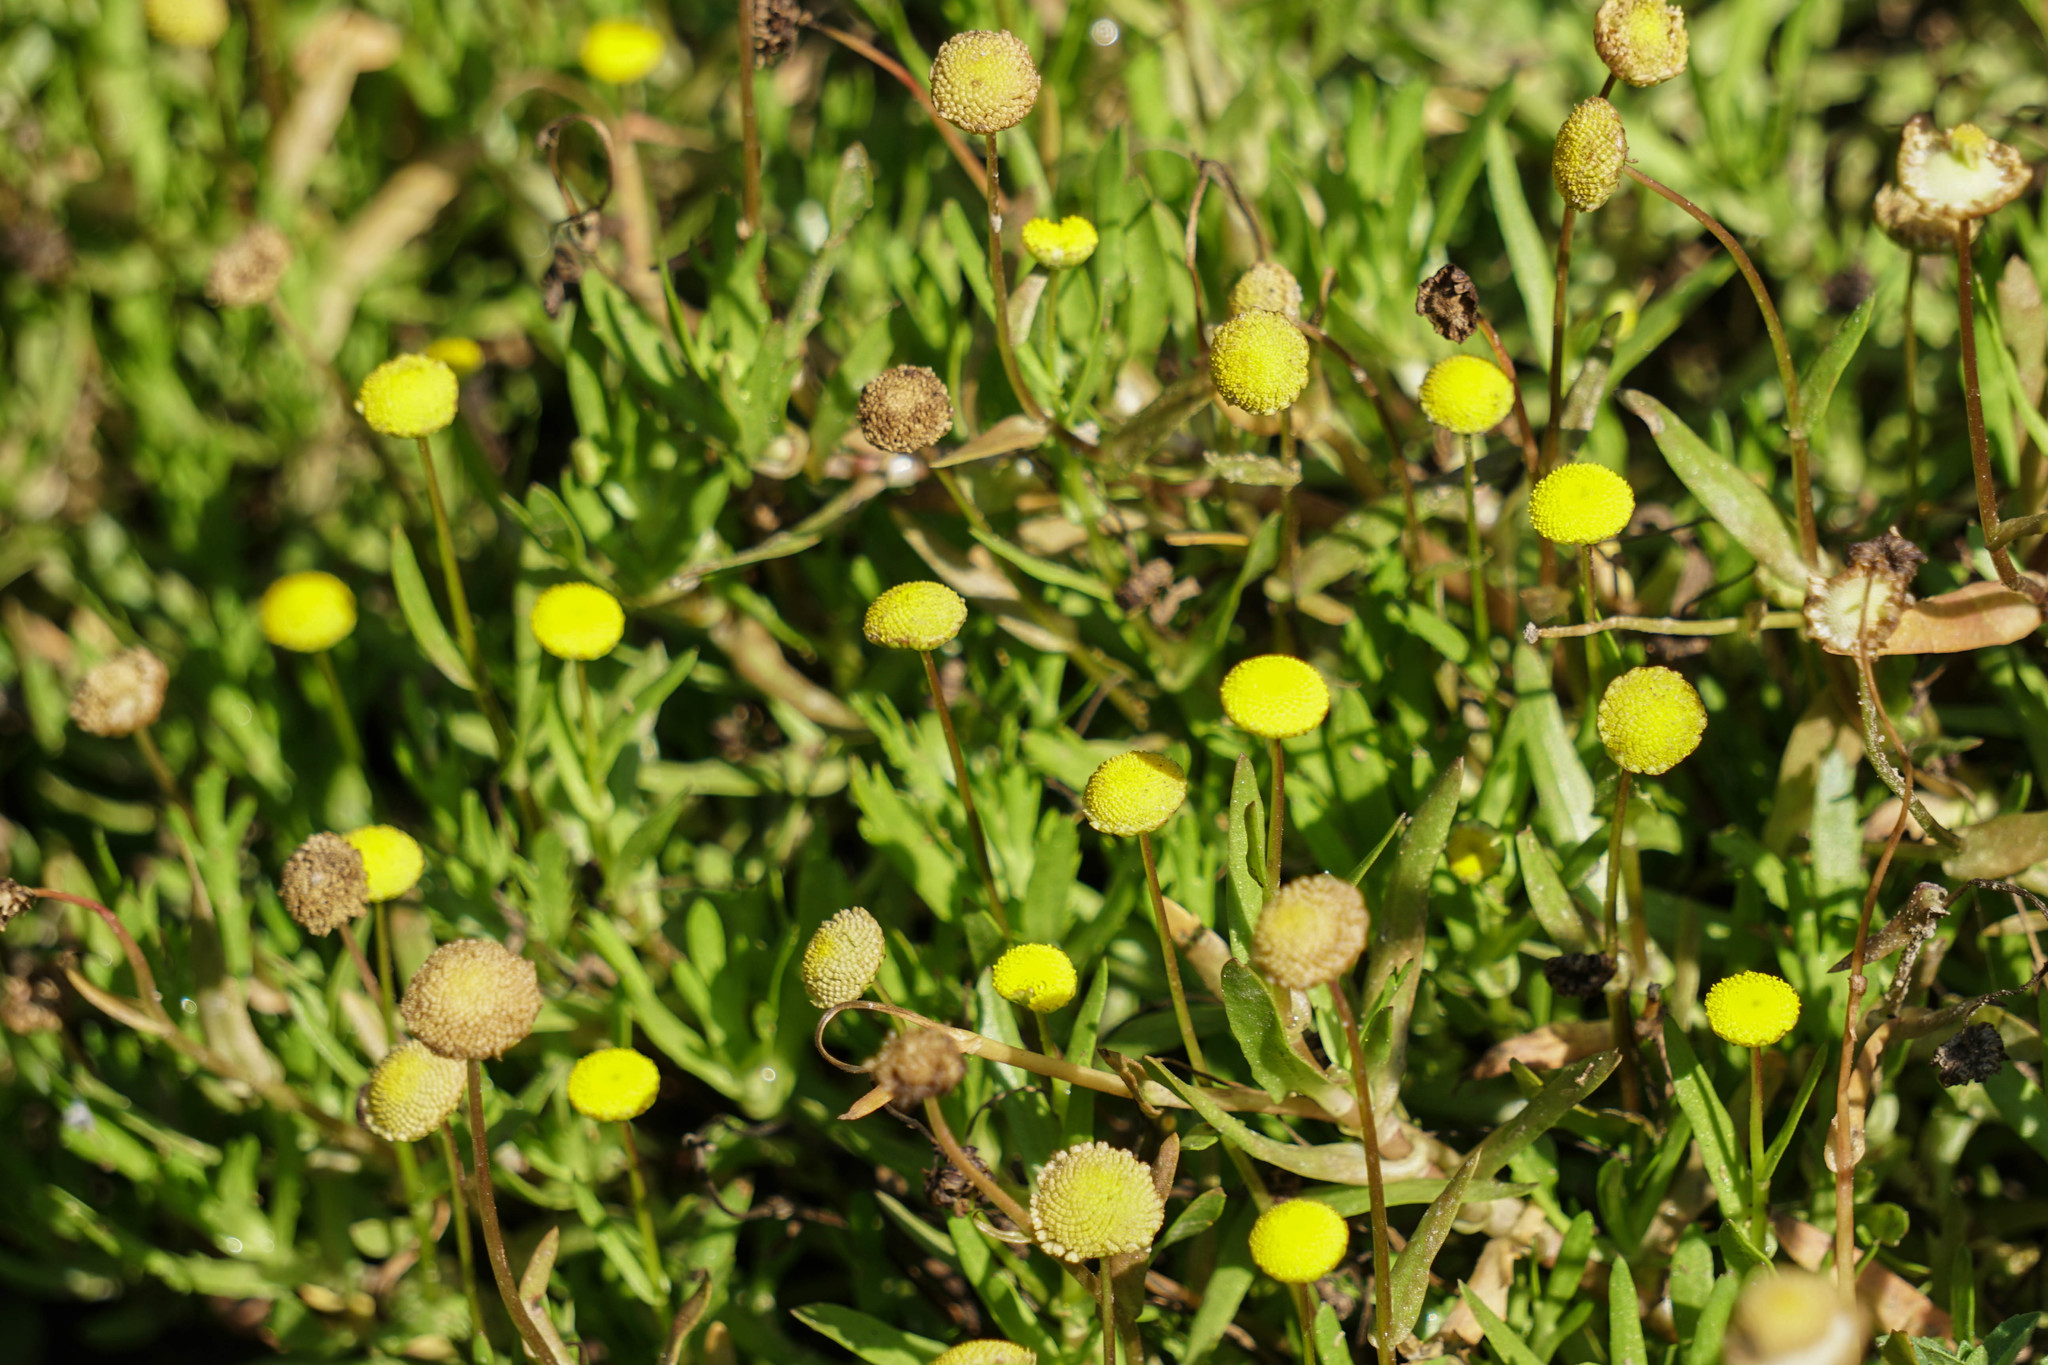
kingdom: Plantae
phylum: Tracheophyta
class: Magnoliopsida
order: Asterales
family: Asteraceae
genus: Cotula
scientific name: Cotula coronopifolia
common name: Buttonweed
